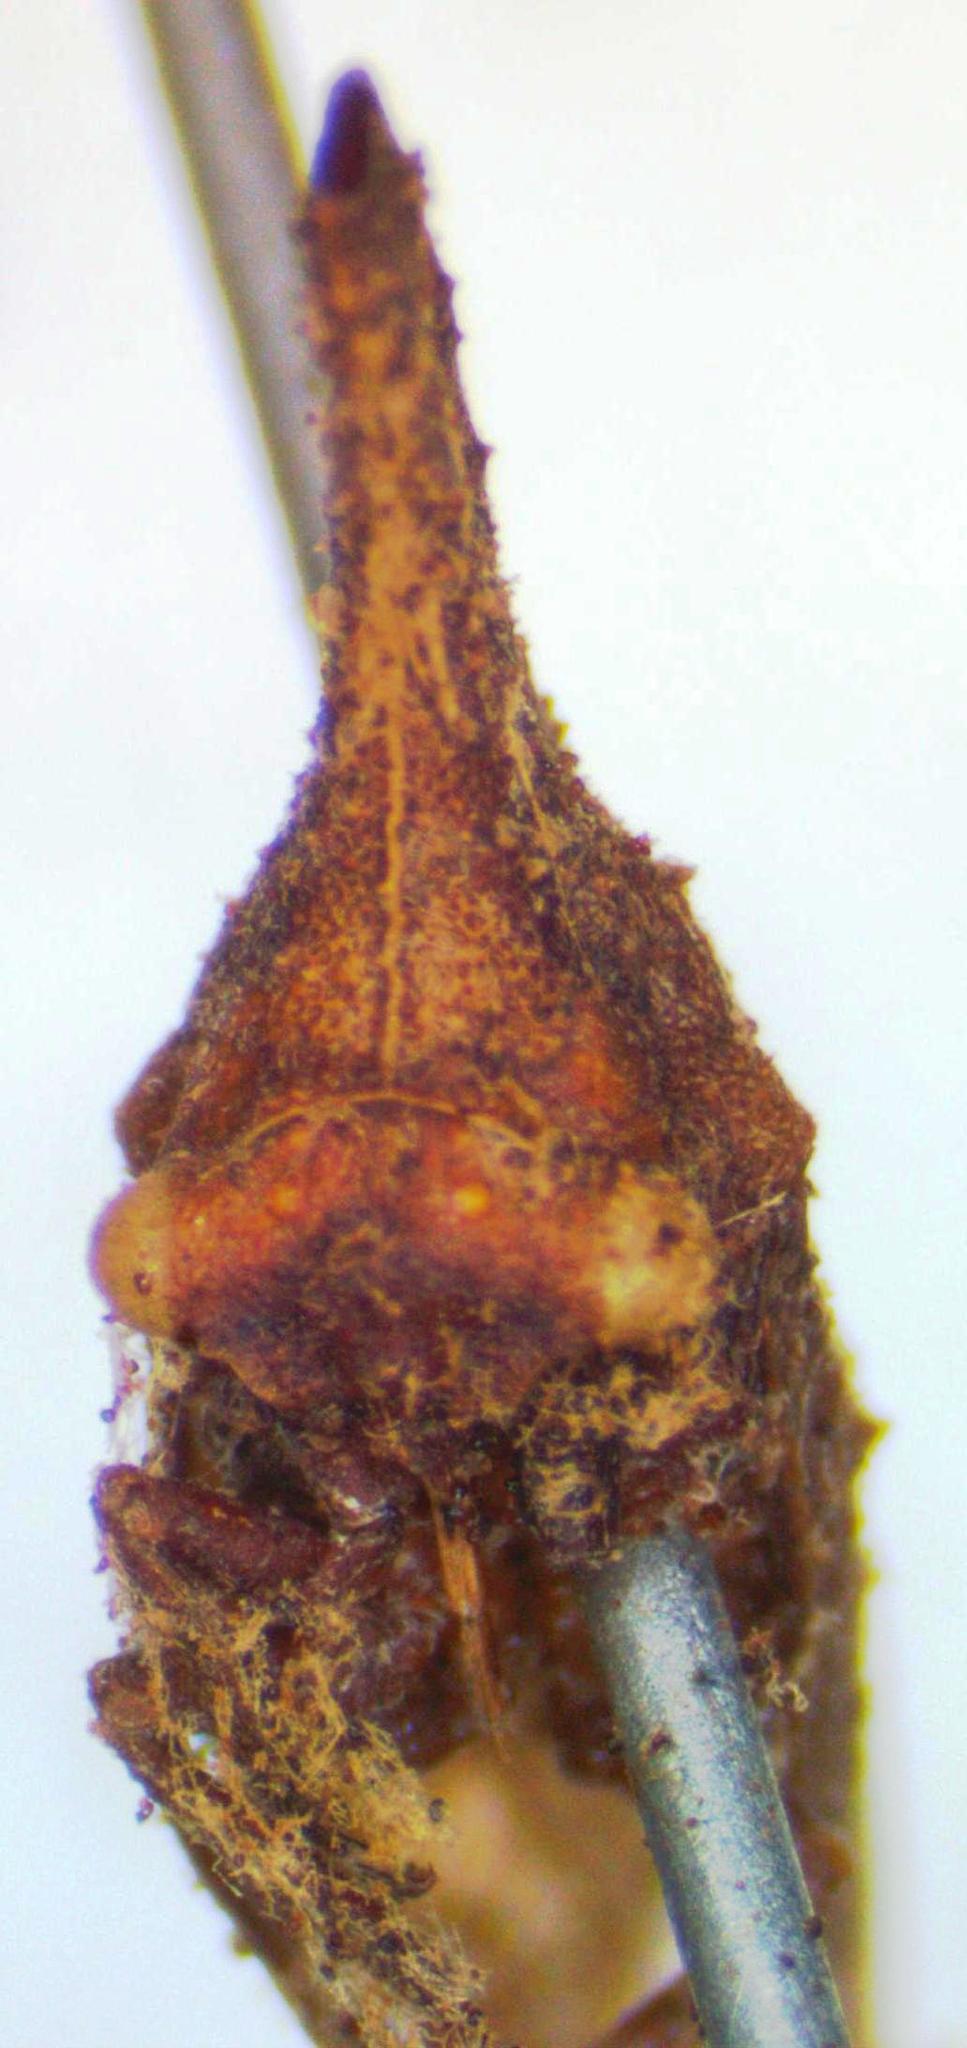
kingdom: Animalia
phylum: Arthropoda
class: Insecta
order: Hemiptera
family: Membracidae
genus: Lycoderes
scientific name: Lycoderes phasianus
